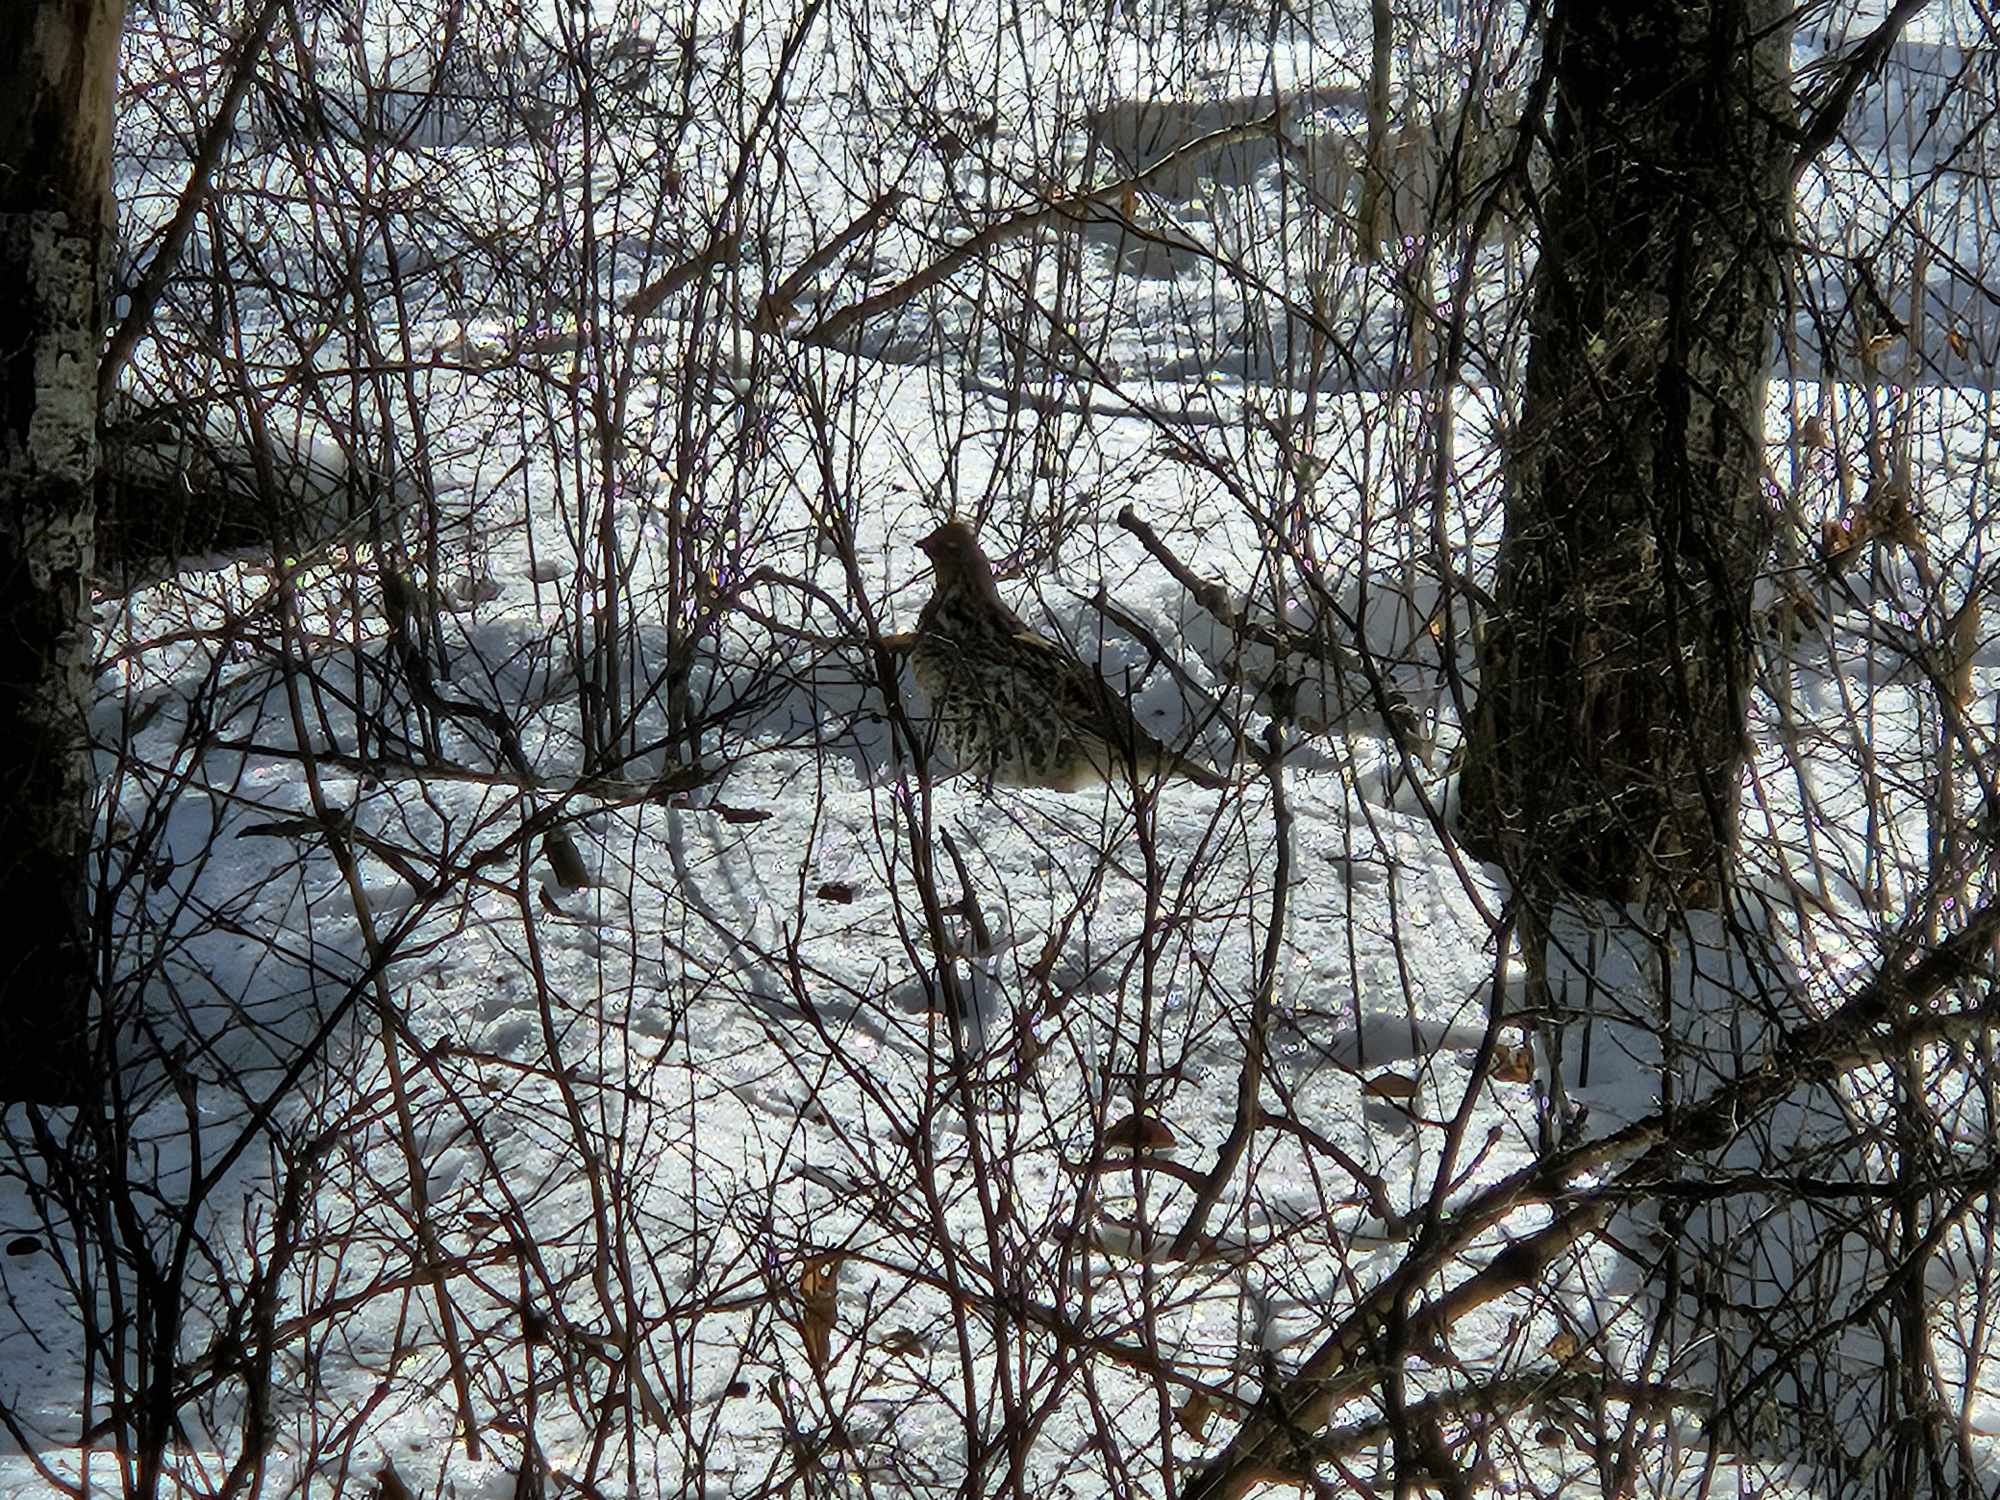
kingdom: Animalia
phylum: Chordata
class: Aves
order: Galliformes
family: Phasianidae
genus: Bonasa
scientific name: Bonasa umbellus
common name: Ruffed grouse
